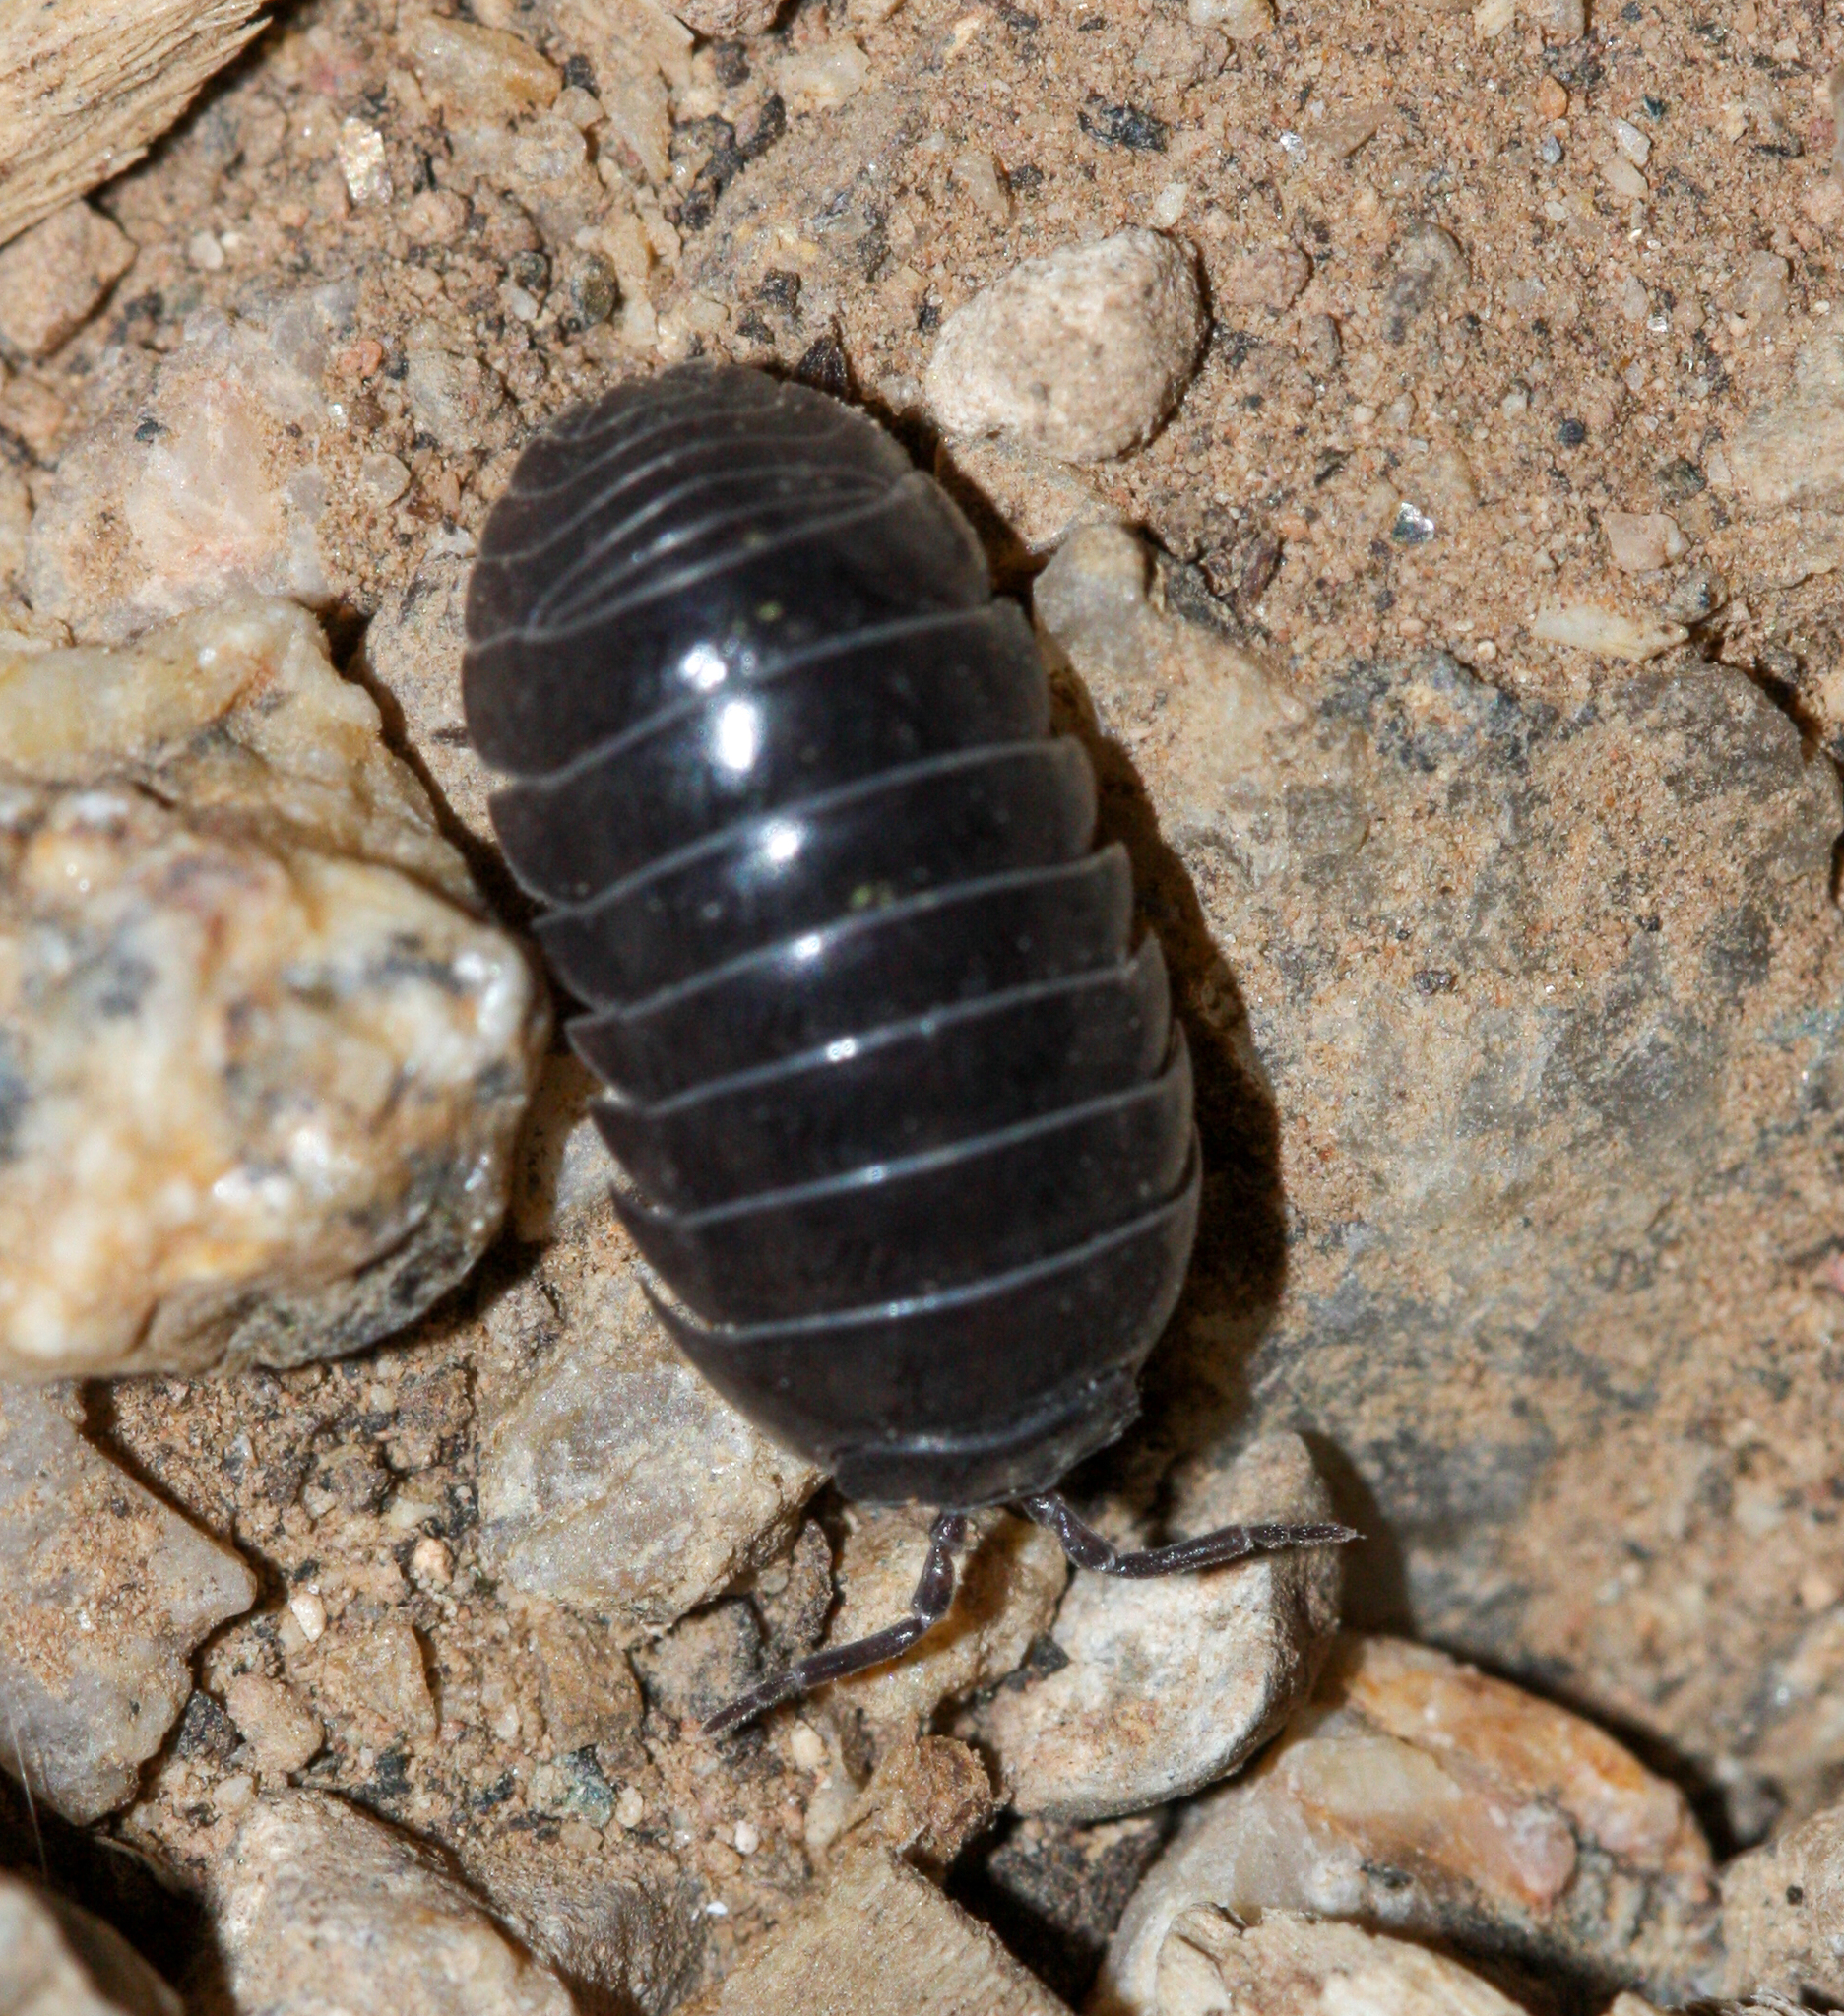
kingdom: Animalia
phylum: Arthropoda
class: Malacostraca
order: Isopoda
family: Armadillidiidae
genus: Armadillidium
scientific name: Armadillidium vulgare
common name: Common pill woodlouse
